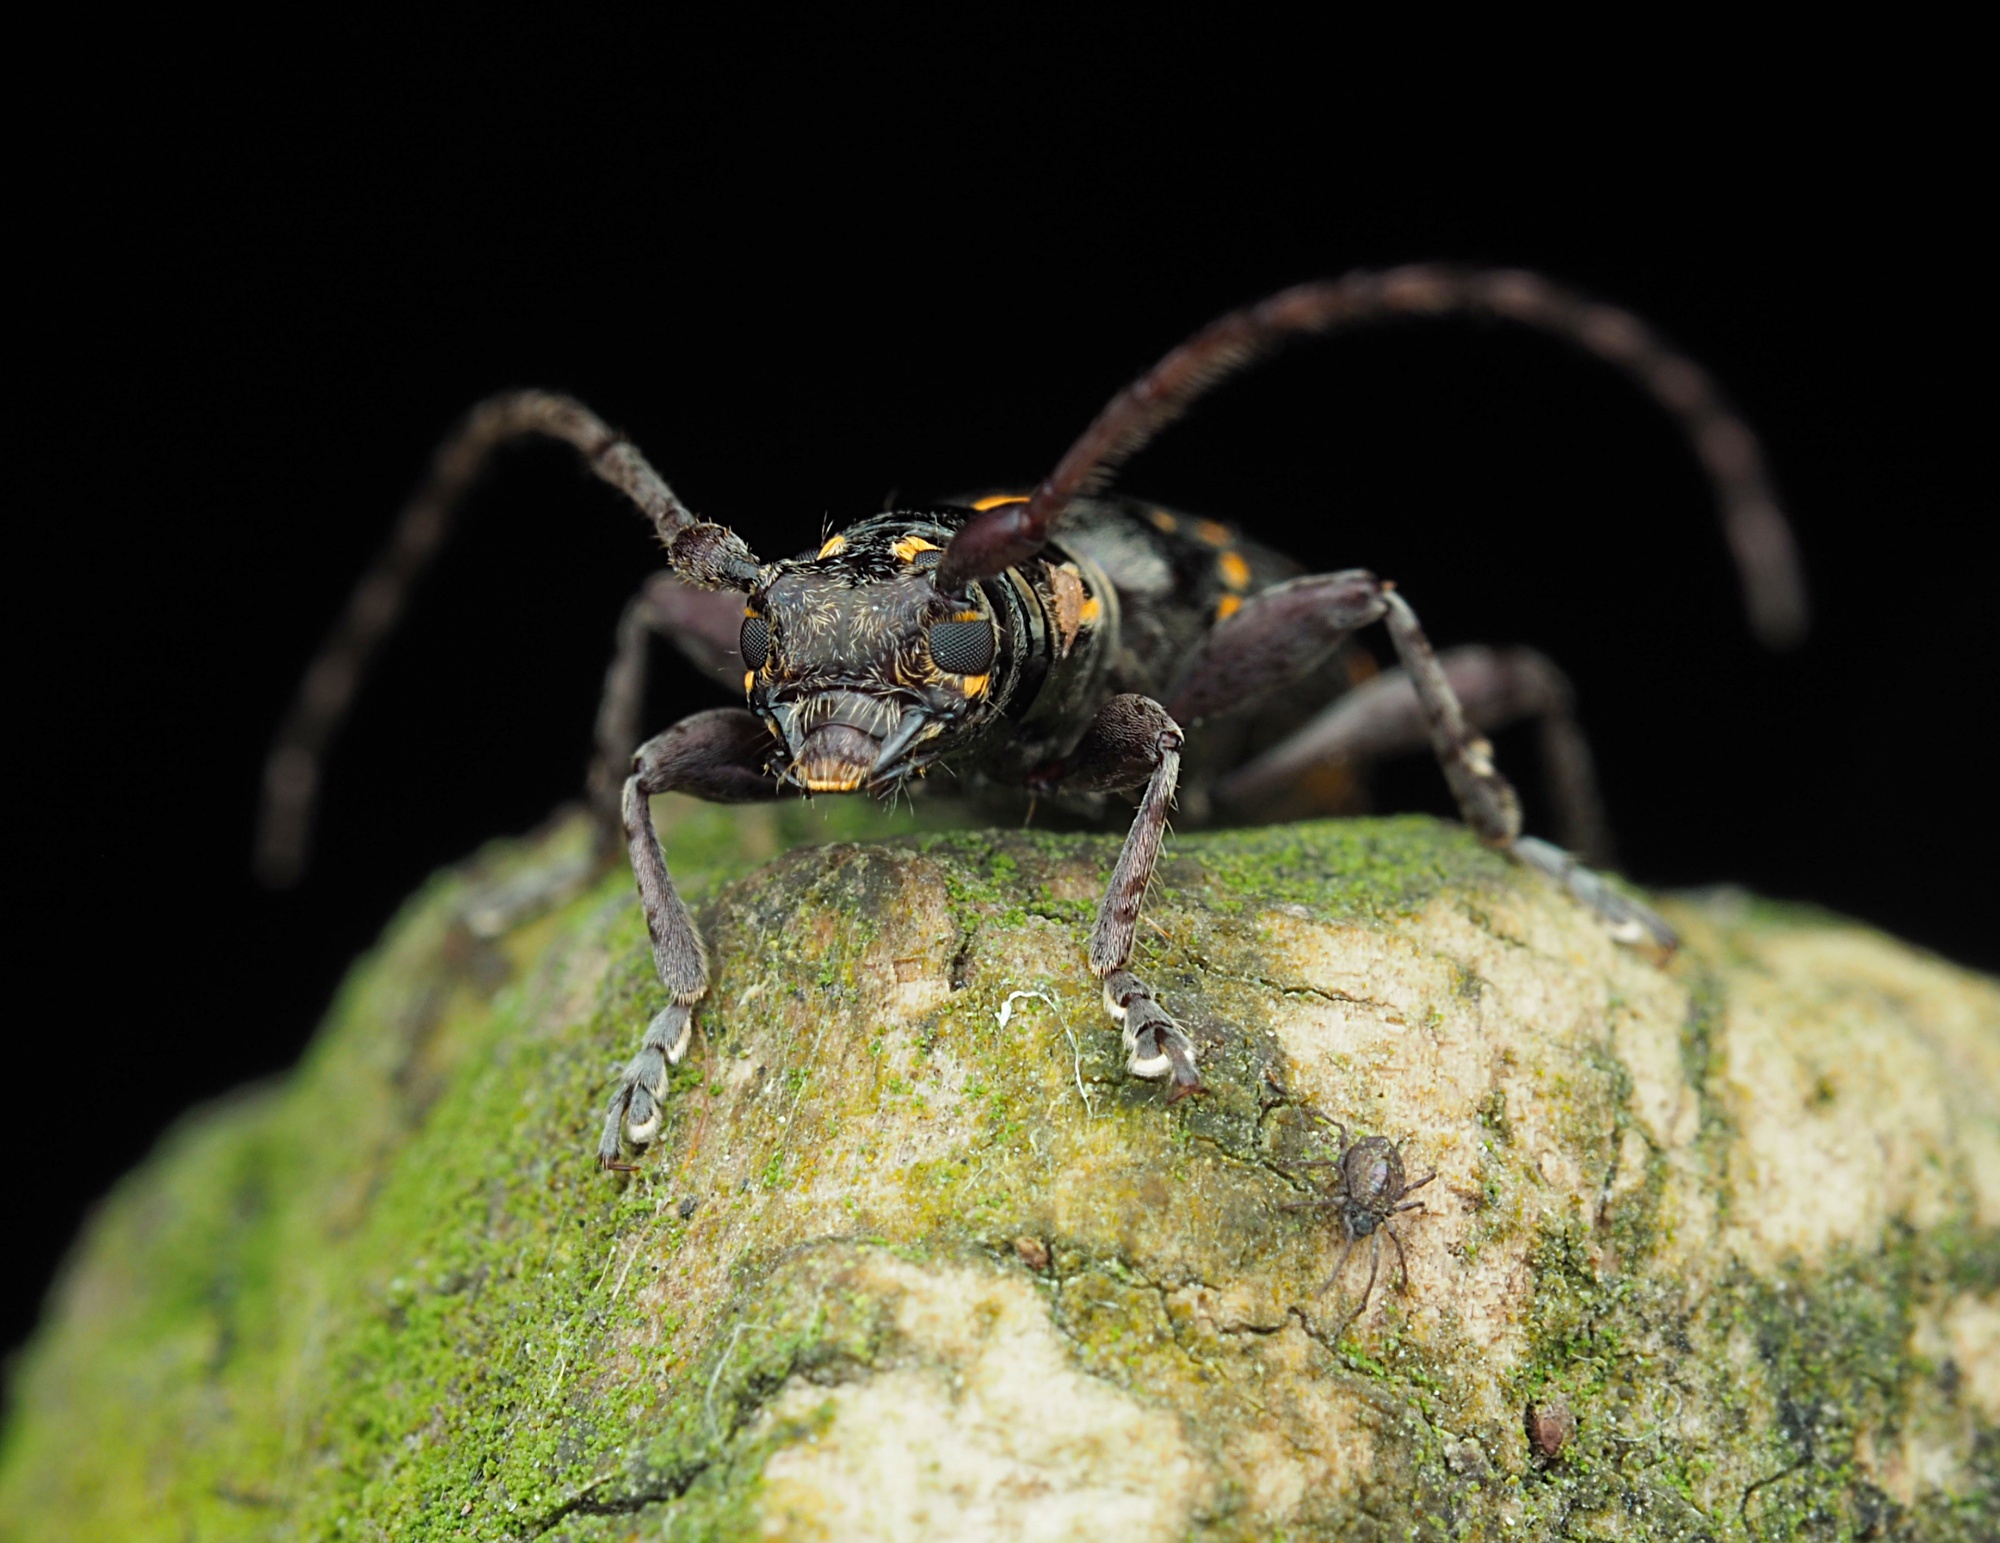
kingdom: Animalia
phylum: Arthropoda
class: Insecta
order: Coleoptera
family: Cerambycidae
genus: Xylotoles
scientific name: Xylotoles griseus
